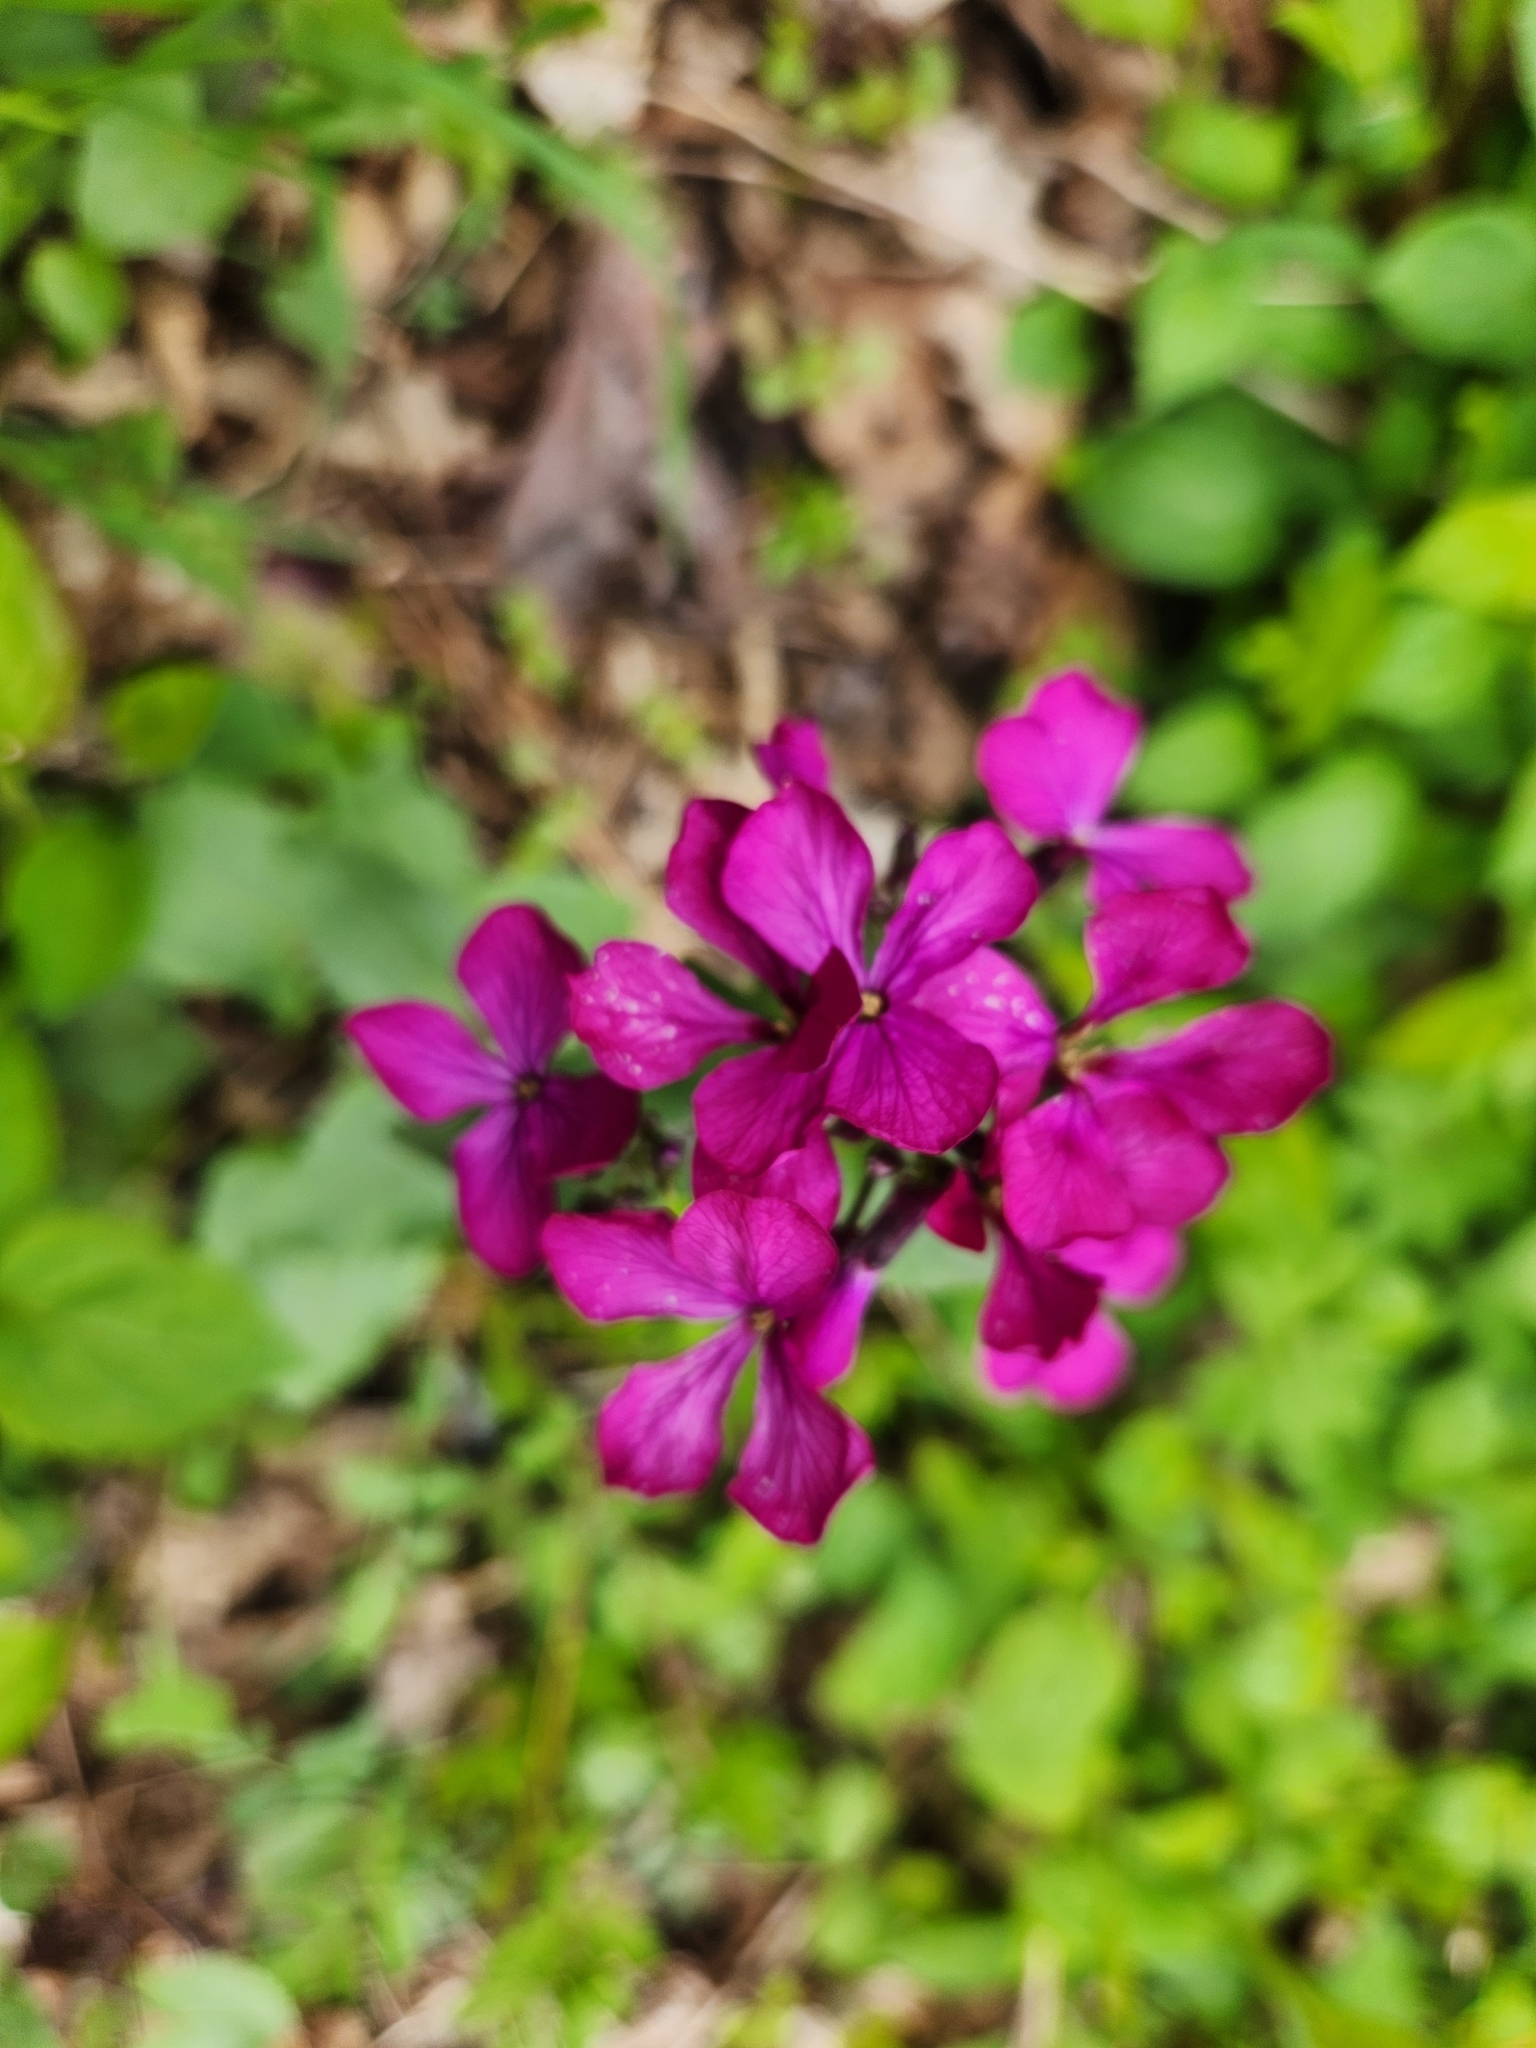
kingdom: Plantae
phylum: Tracheophyta
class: Magnoliopsida
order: Brassicales
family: Brassicaceae
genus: Lunaria
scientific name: Lunaria annua
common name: Honesty
